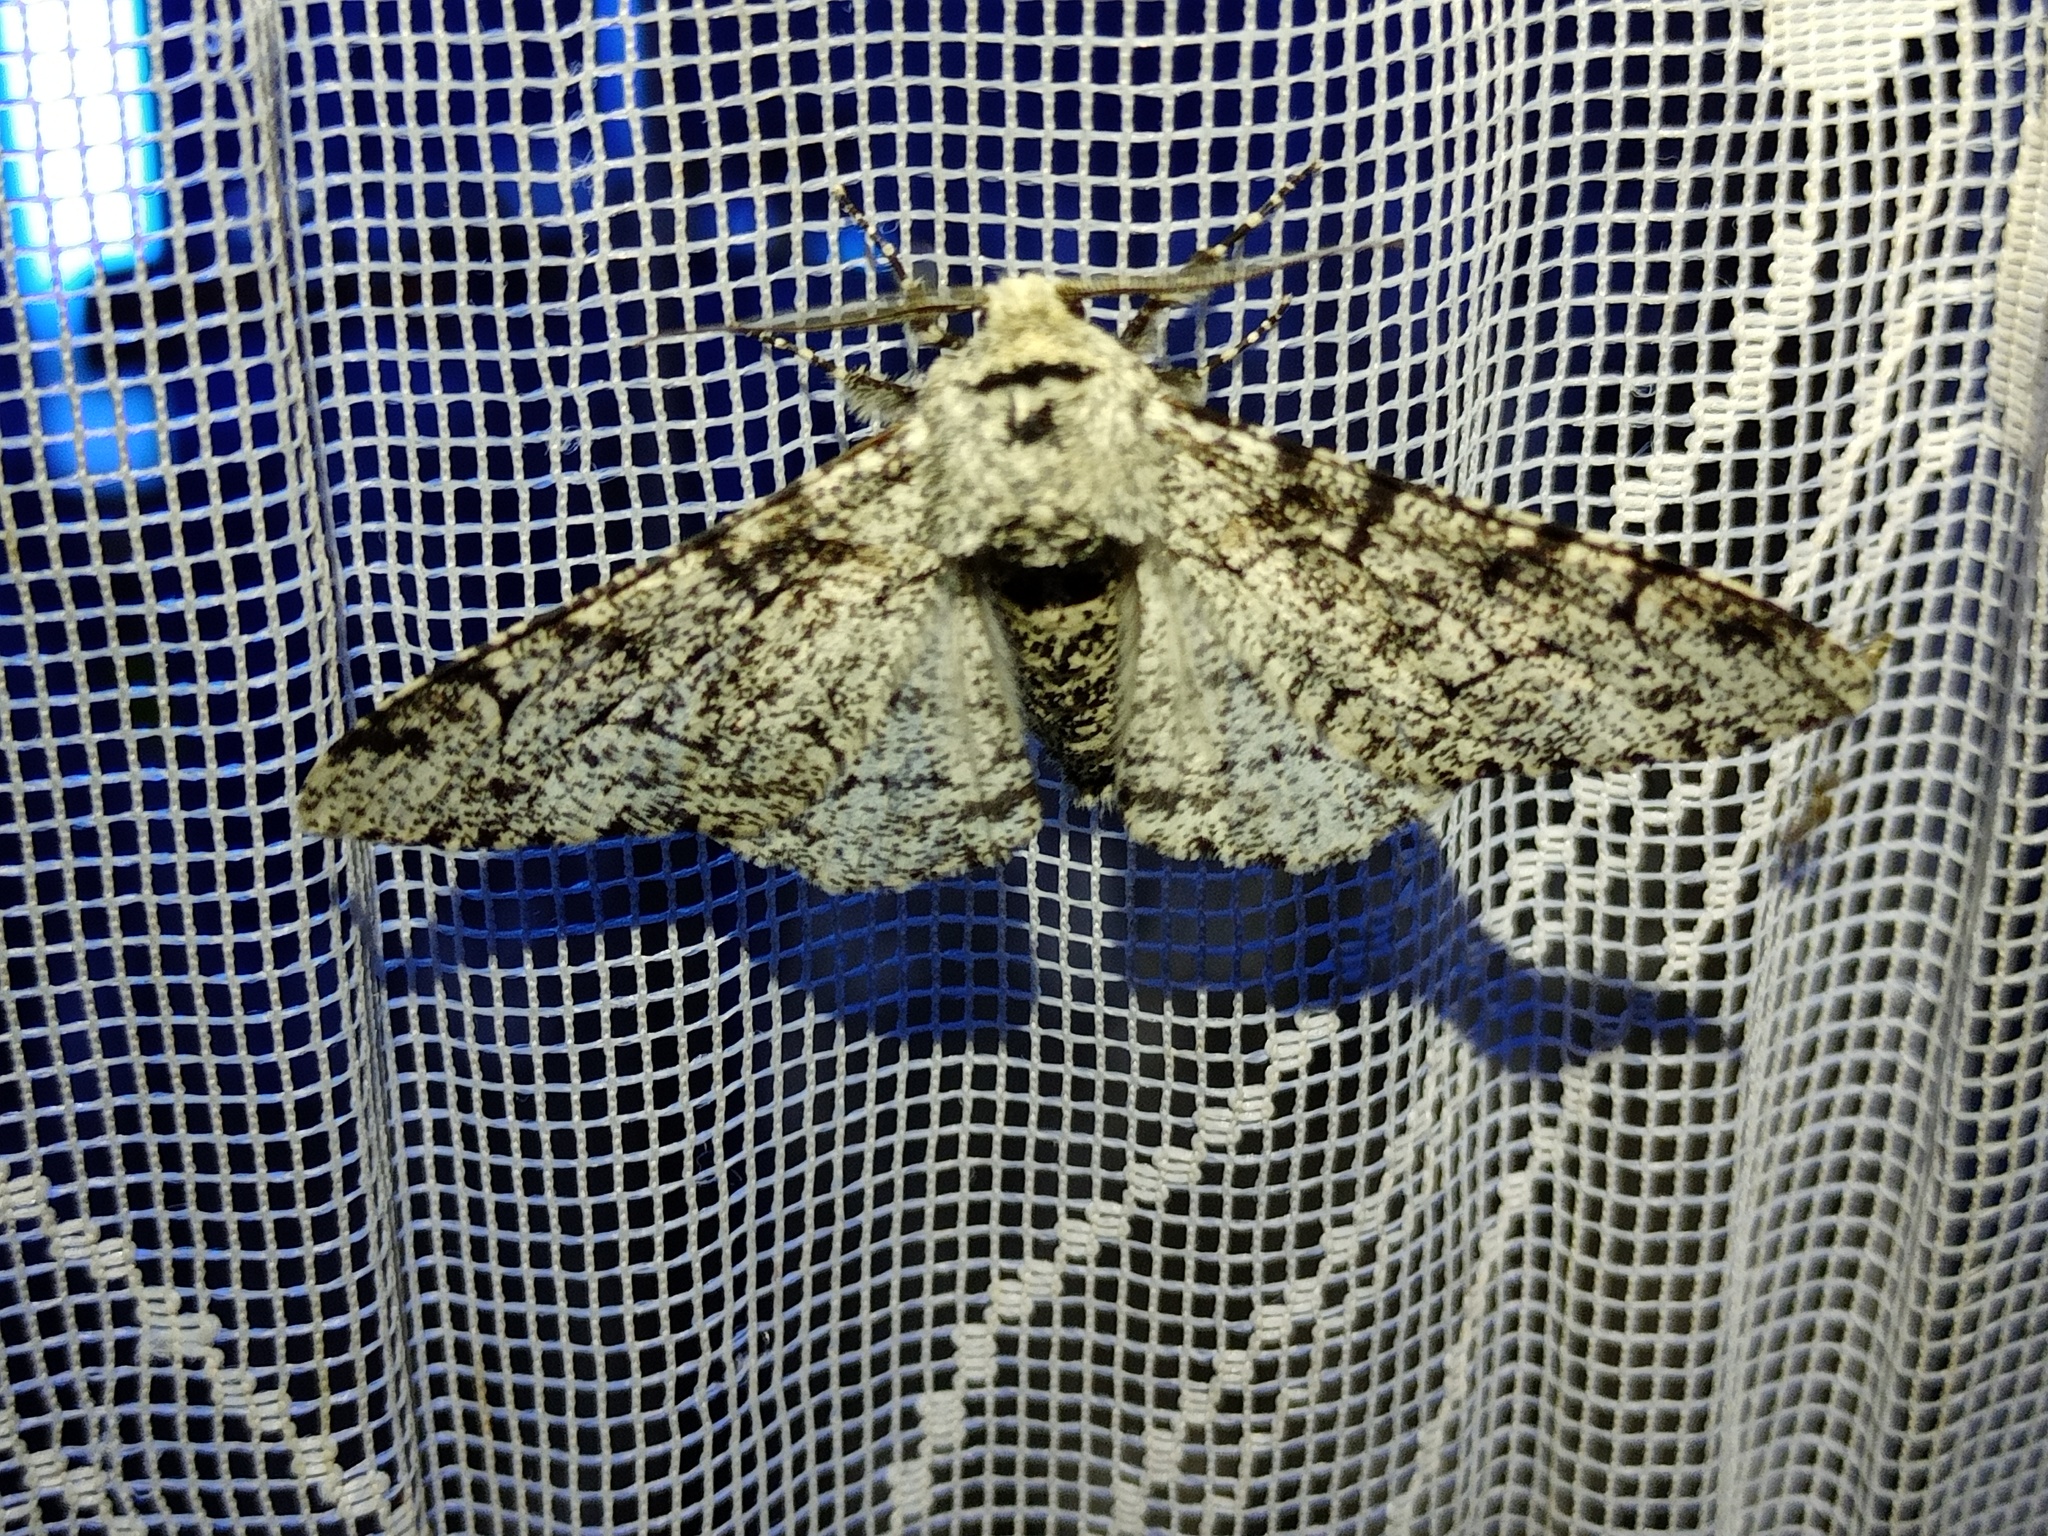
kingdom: Animalia
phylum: Arthropoda
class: Insecta
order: Lepidoptera
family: Geometridae
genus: Biston
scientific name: Biston betularia
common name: Peppered moth
